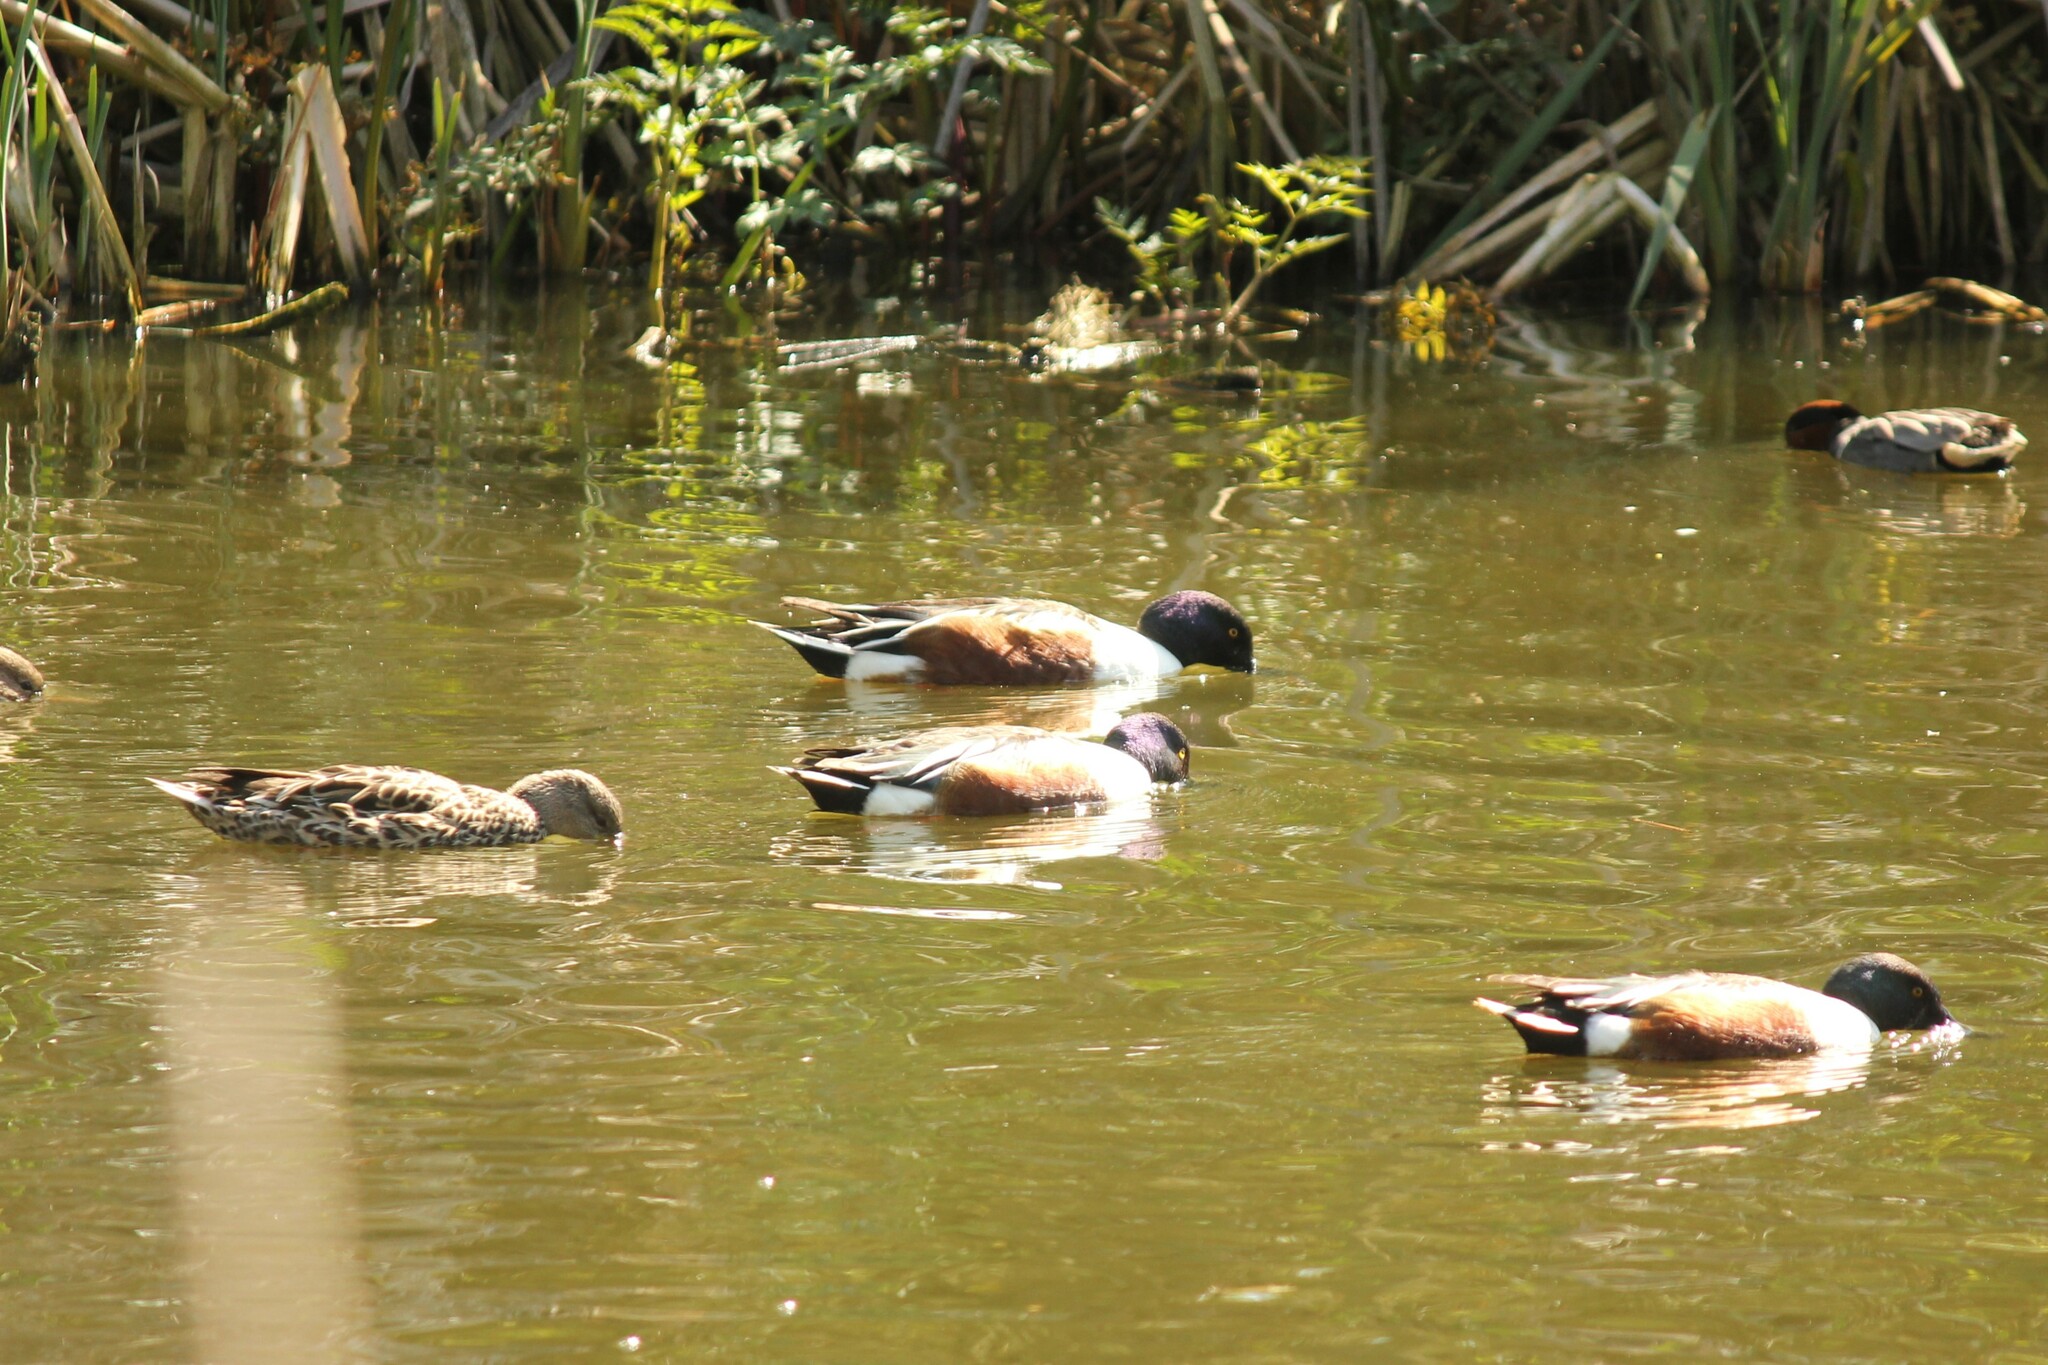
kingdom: Animalia
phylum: Chordata
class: Aves
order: Anseriformes
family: Anatidae
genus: Spatula
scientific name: Spatula clypeata
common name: Northern shoveler
